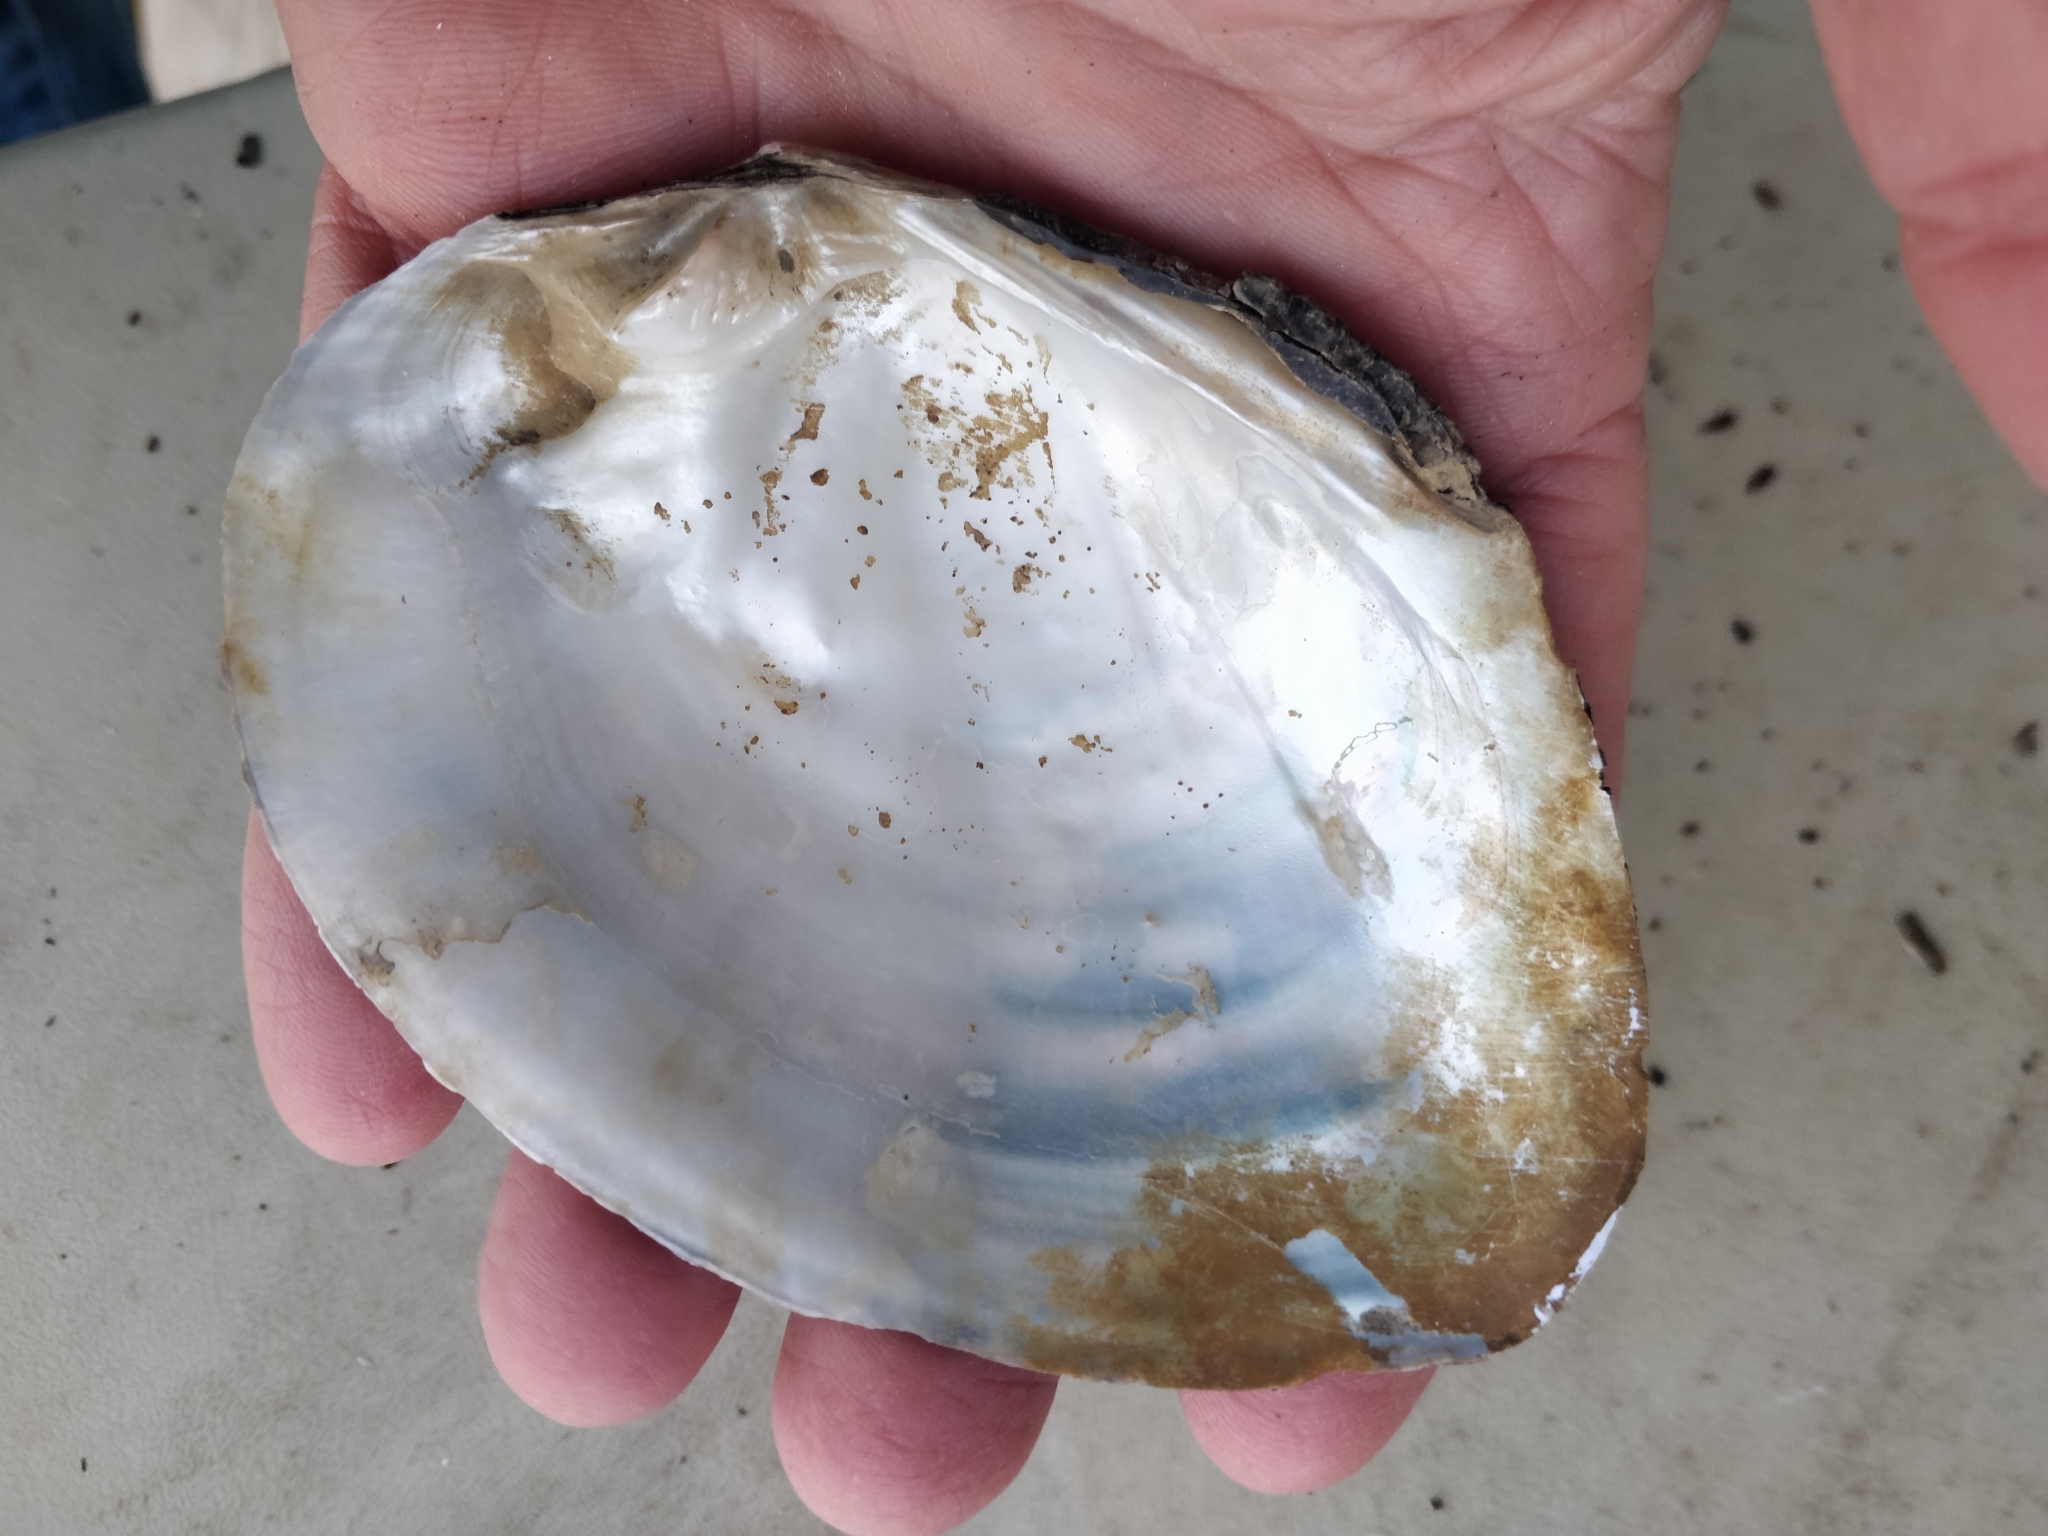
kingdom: Animalia
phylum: Mollusca
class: Bivalvia
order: Unionida
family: Unionidae
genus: Lasmigona
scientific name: Lasmigona complanata
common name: White heelsplitter
